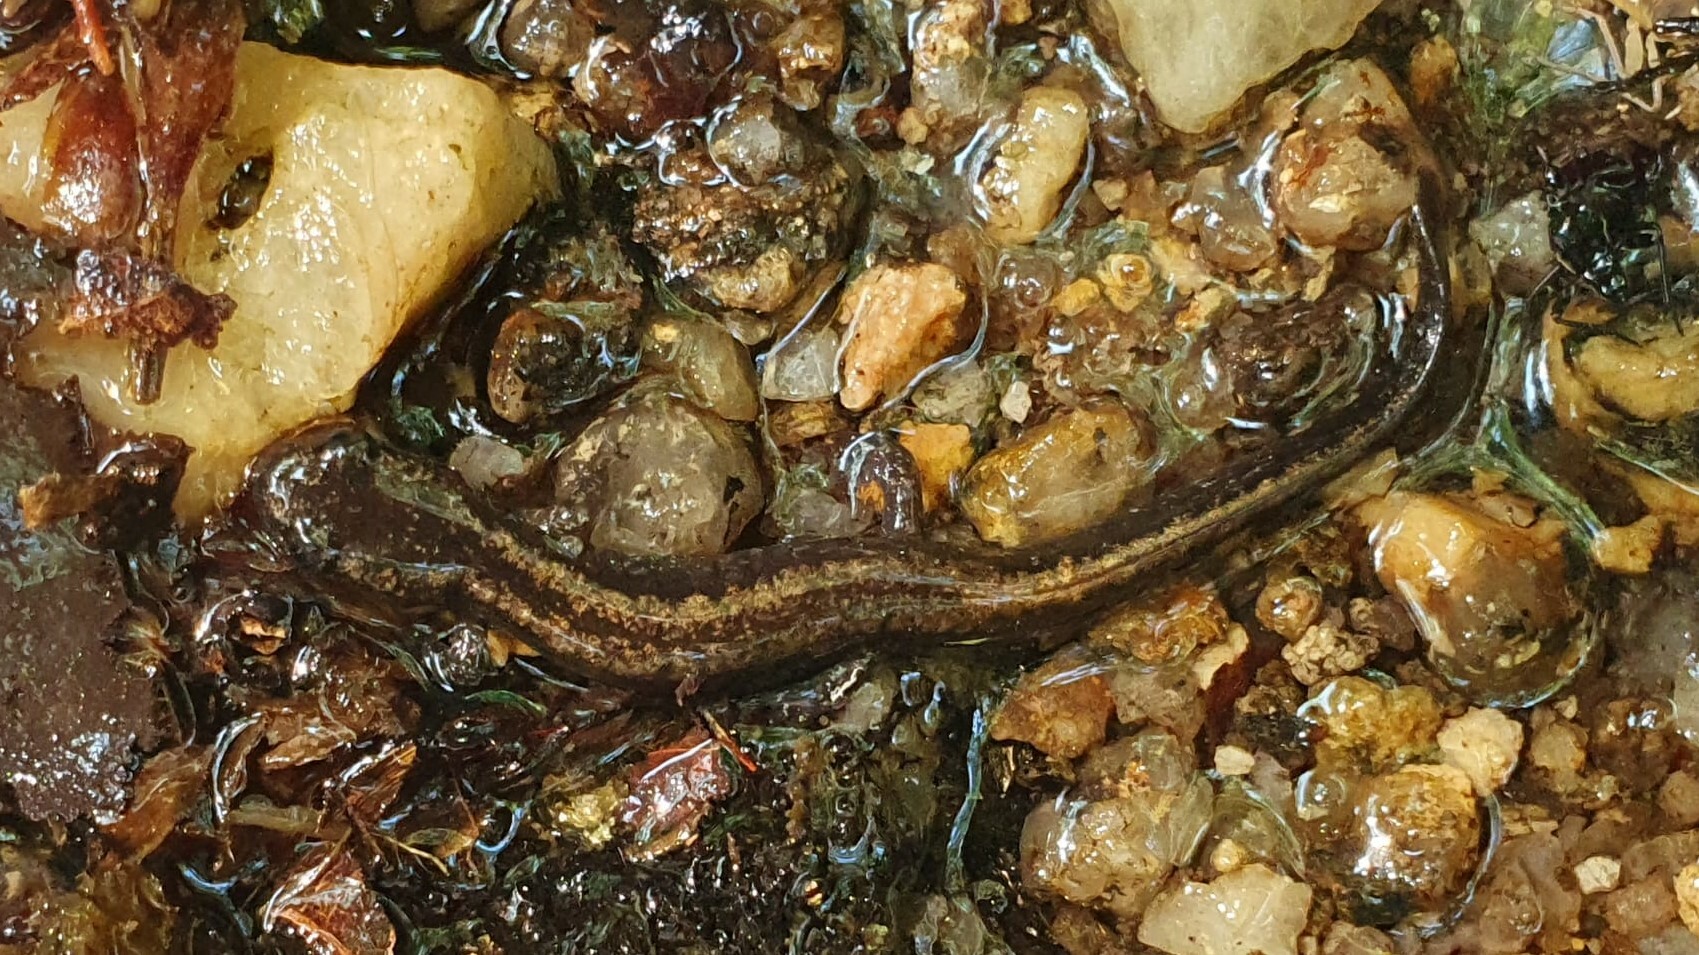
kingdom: Animalia
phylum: Chordata
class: Amphibia
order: Caudata
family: Salamandridae
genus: Chioglossa
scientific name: Chioglossa lusitanica
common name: Gold-striped salamander
